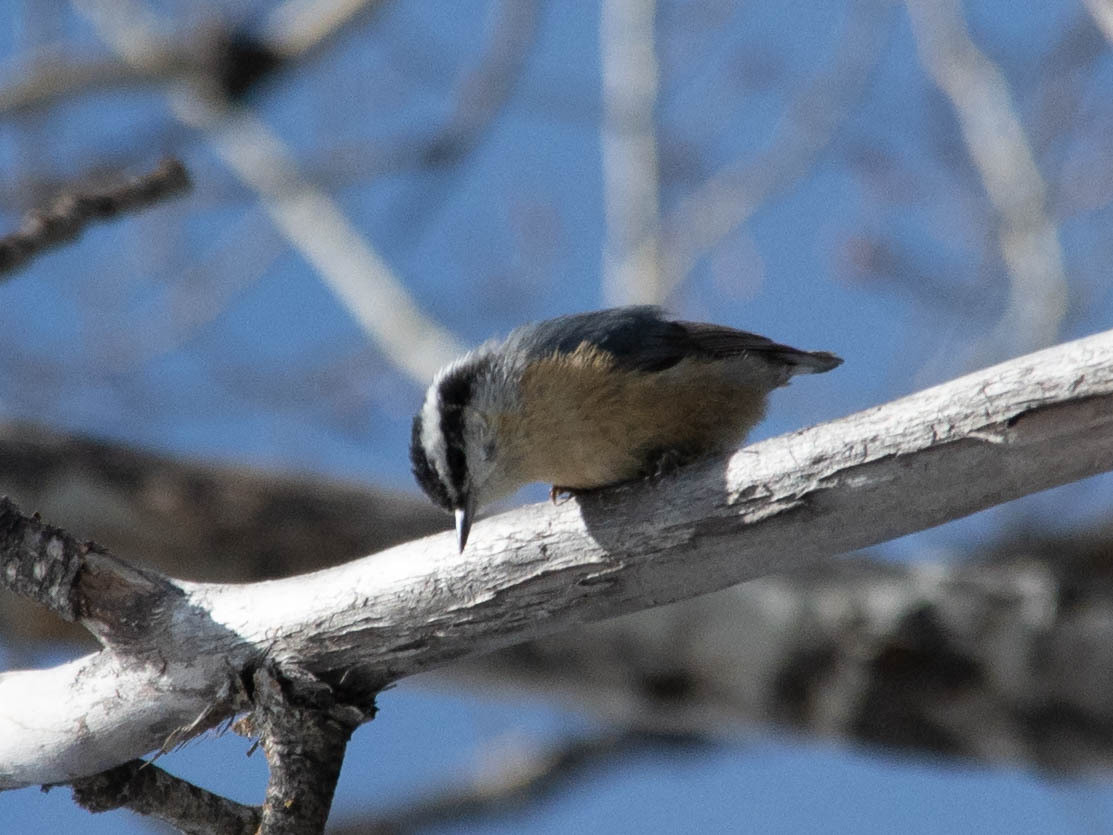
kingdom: Animalia
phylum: Chordata
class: Aves
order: Passeriformes
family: Sittidae
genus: Sitta
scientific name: Sitta canadensis
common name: Red-breasted nuthatch
